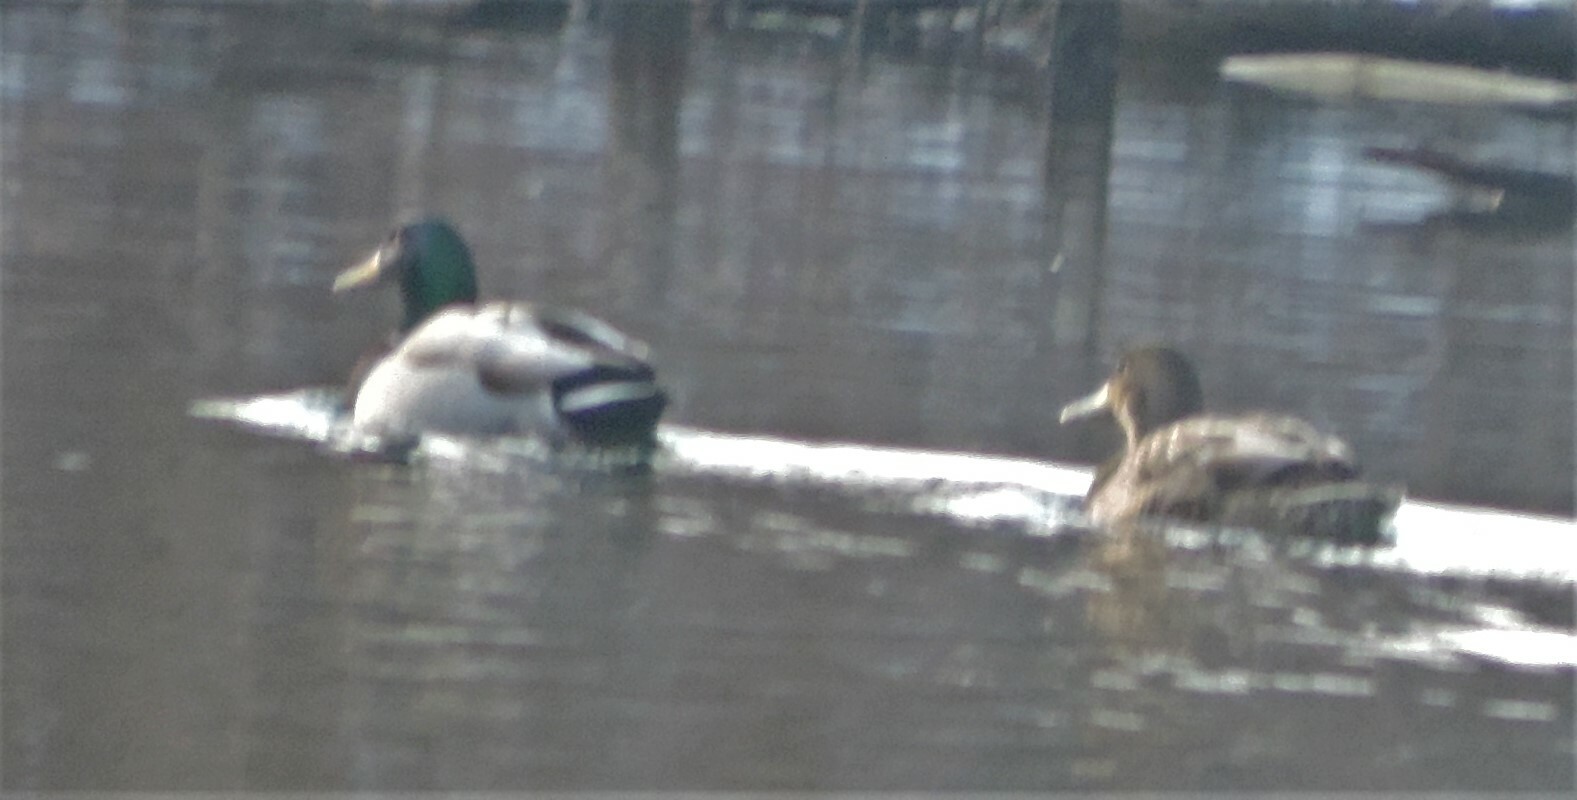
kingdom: Animalia
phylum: Chordata
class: Aves
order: Anseriformes
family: Anatidae
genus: Anas
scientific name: Anas platyrhynchos
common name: Mallard
